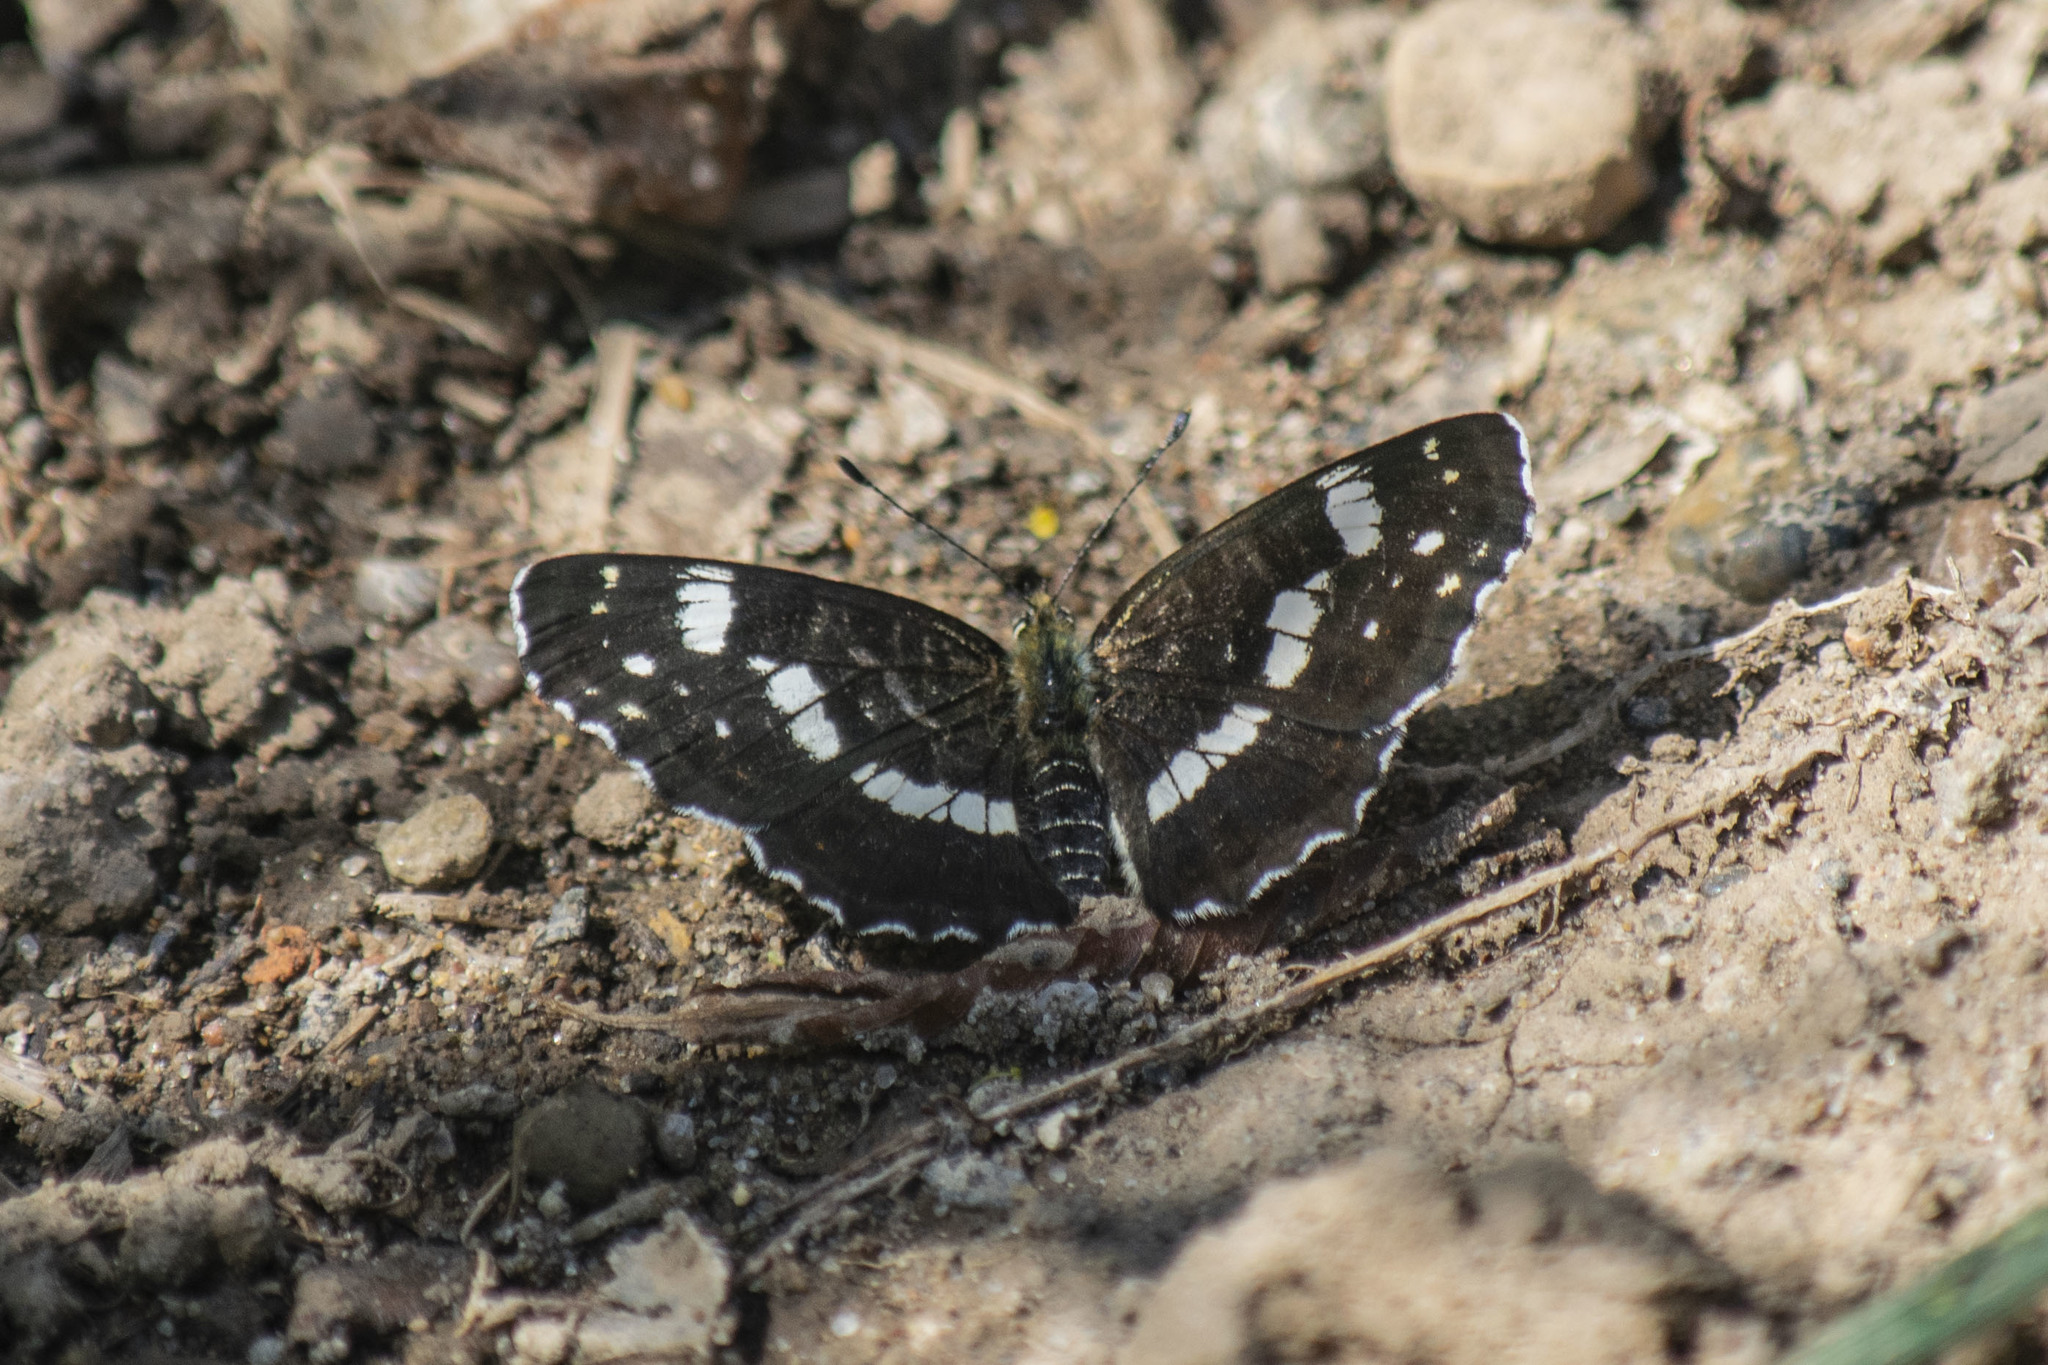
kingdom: Animalia
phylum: Arthropoda
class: Insecta
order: Lepidoptera
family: Nymphalidae
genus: Araschnia
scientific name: Araschnia levana
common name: Map butterfly
